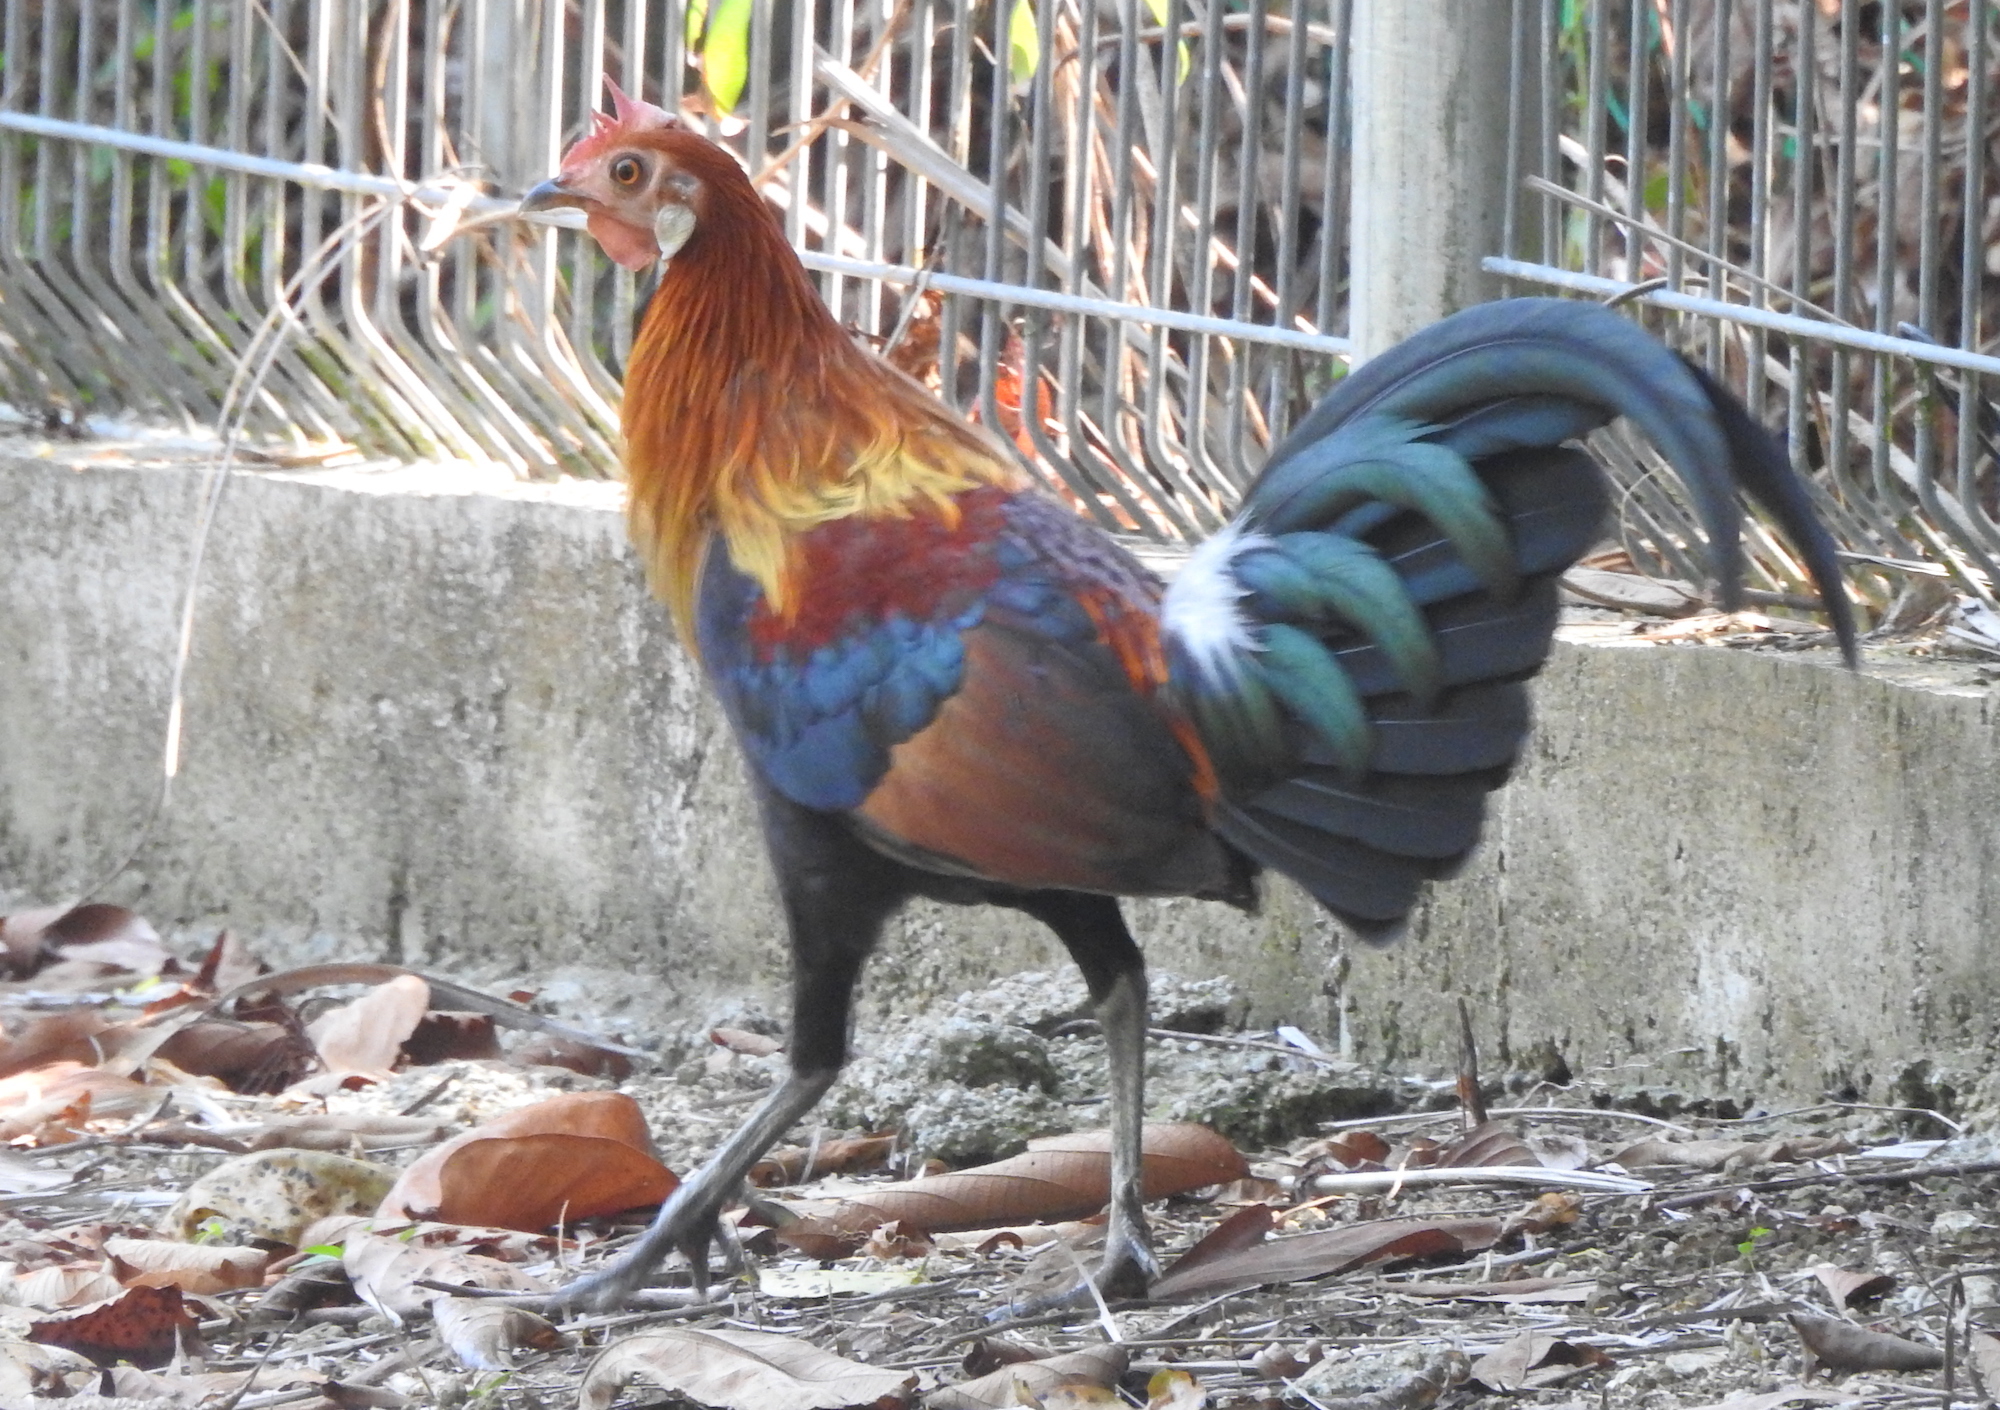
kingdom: Animalia
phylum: Chordata
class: Aves
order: Galliformes
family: Phasianidae
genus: Gallus
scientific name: Gallus gallus
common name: Red junglefowl
